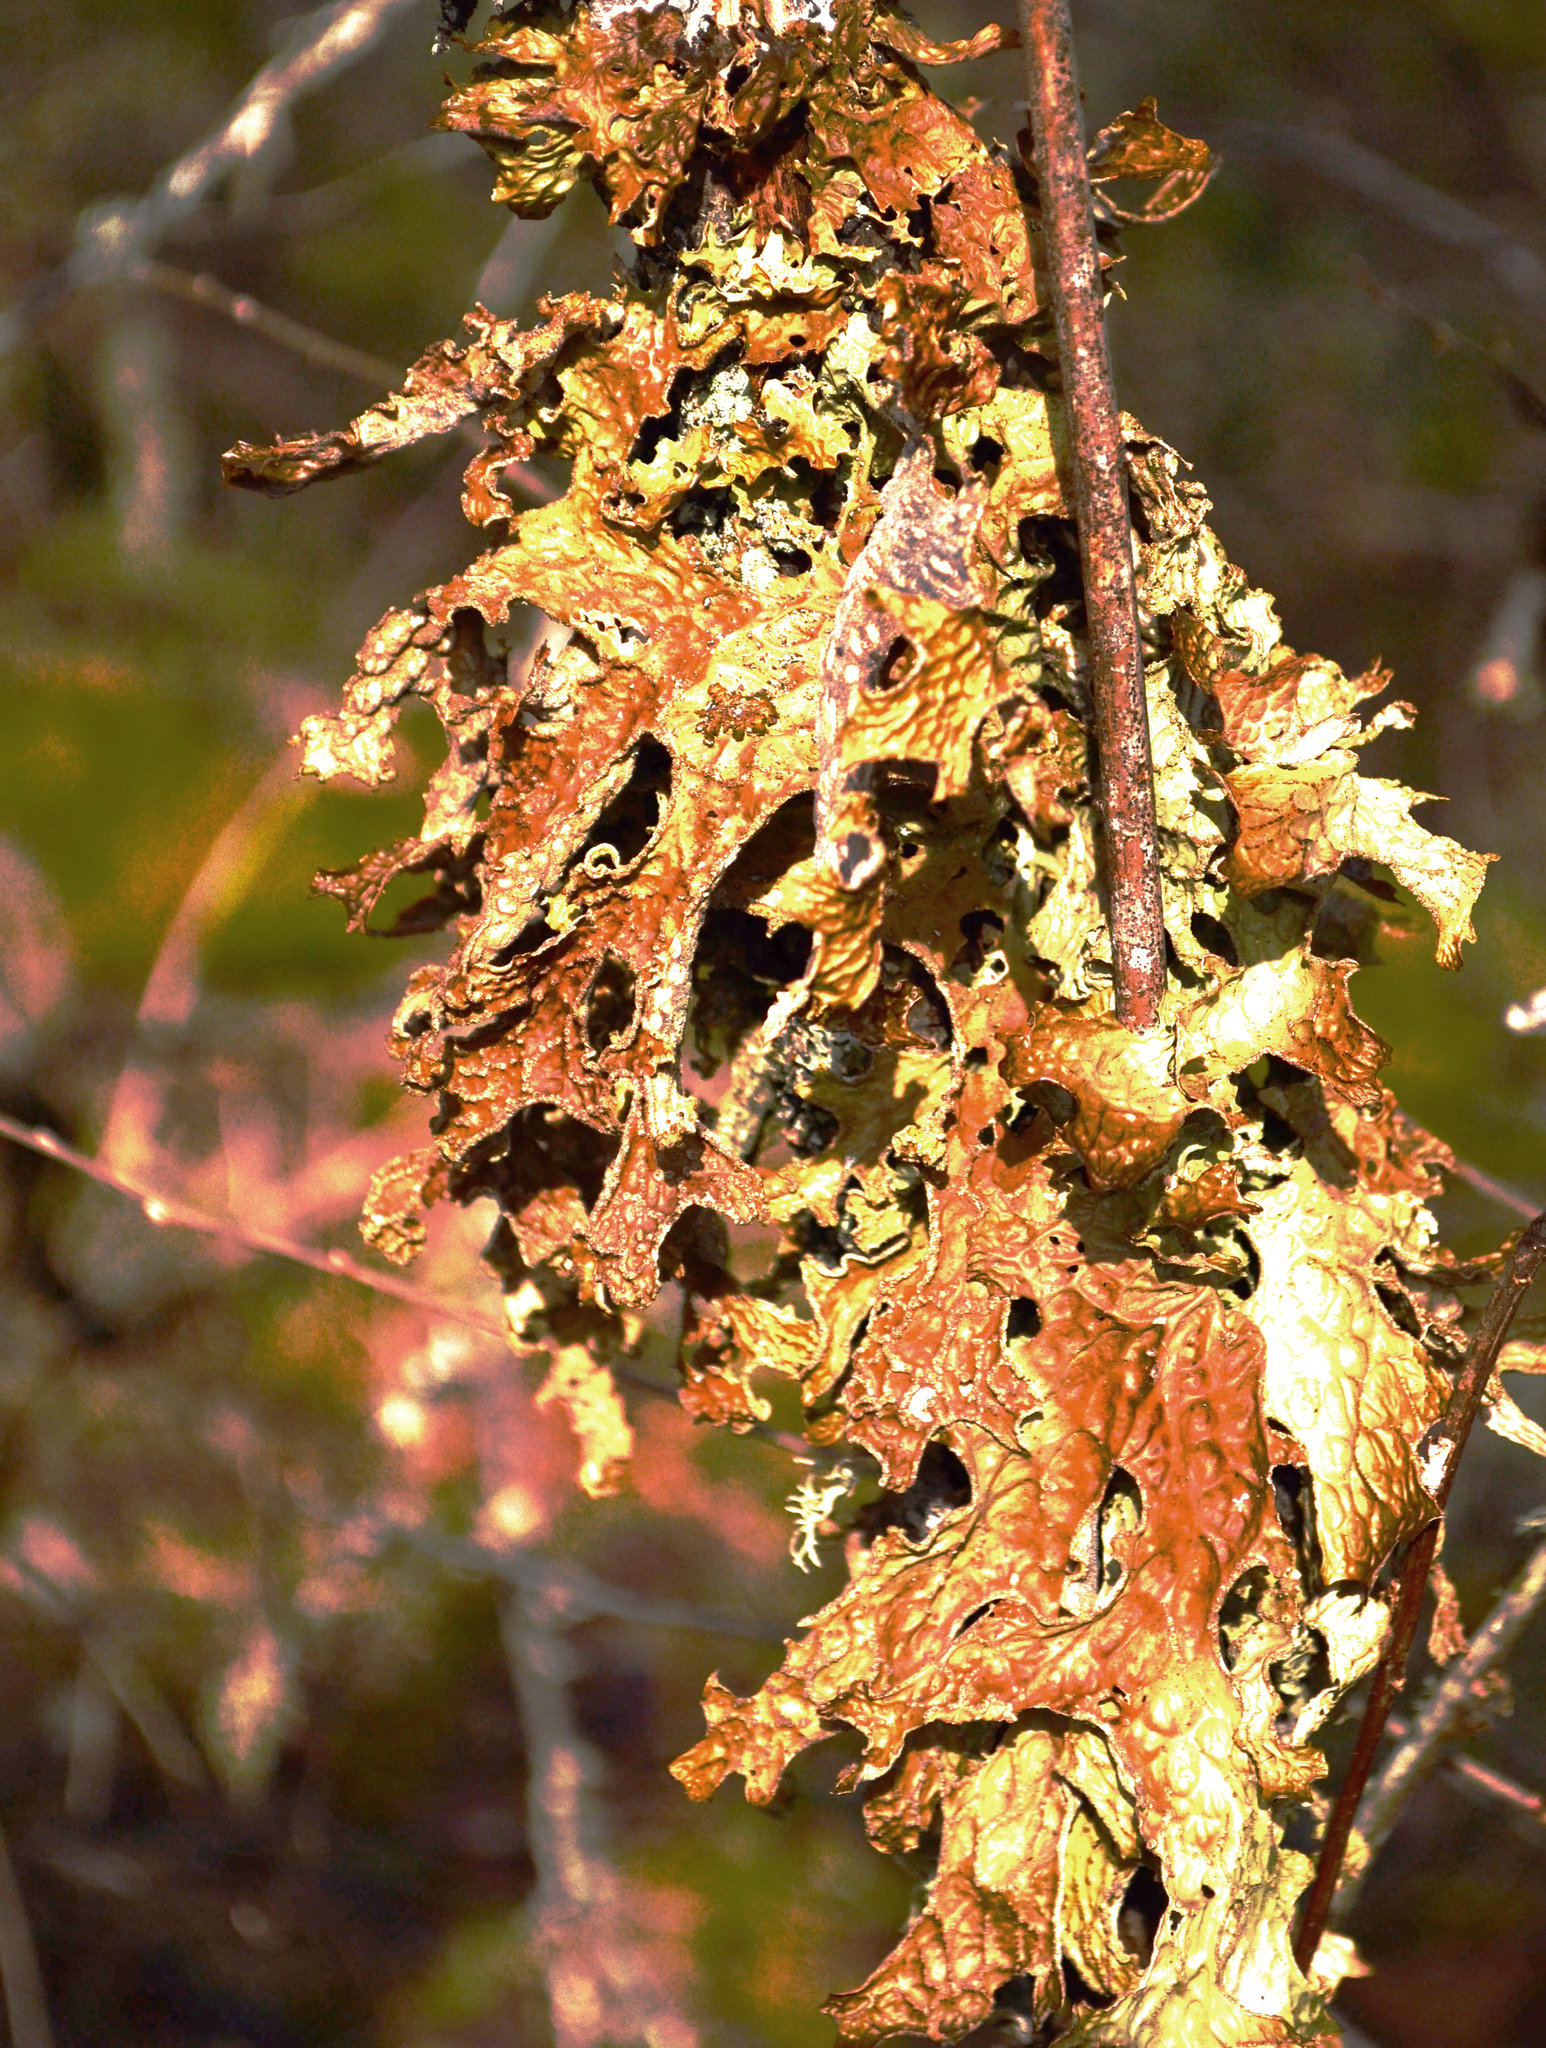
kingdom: Fungi
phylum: Ascomycota
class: Lecanoromycetes
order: Peltigerales
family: Lobariaceae
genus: Lobaria
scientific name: Lobaria pulmonaria
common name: Lungwort
